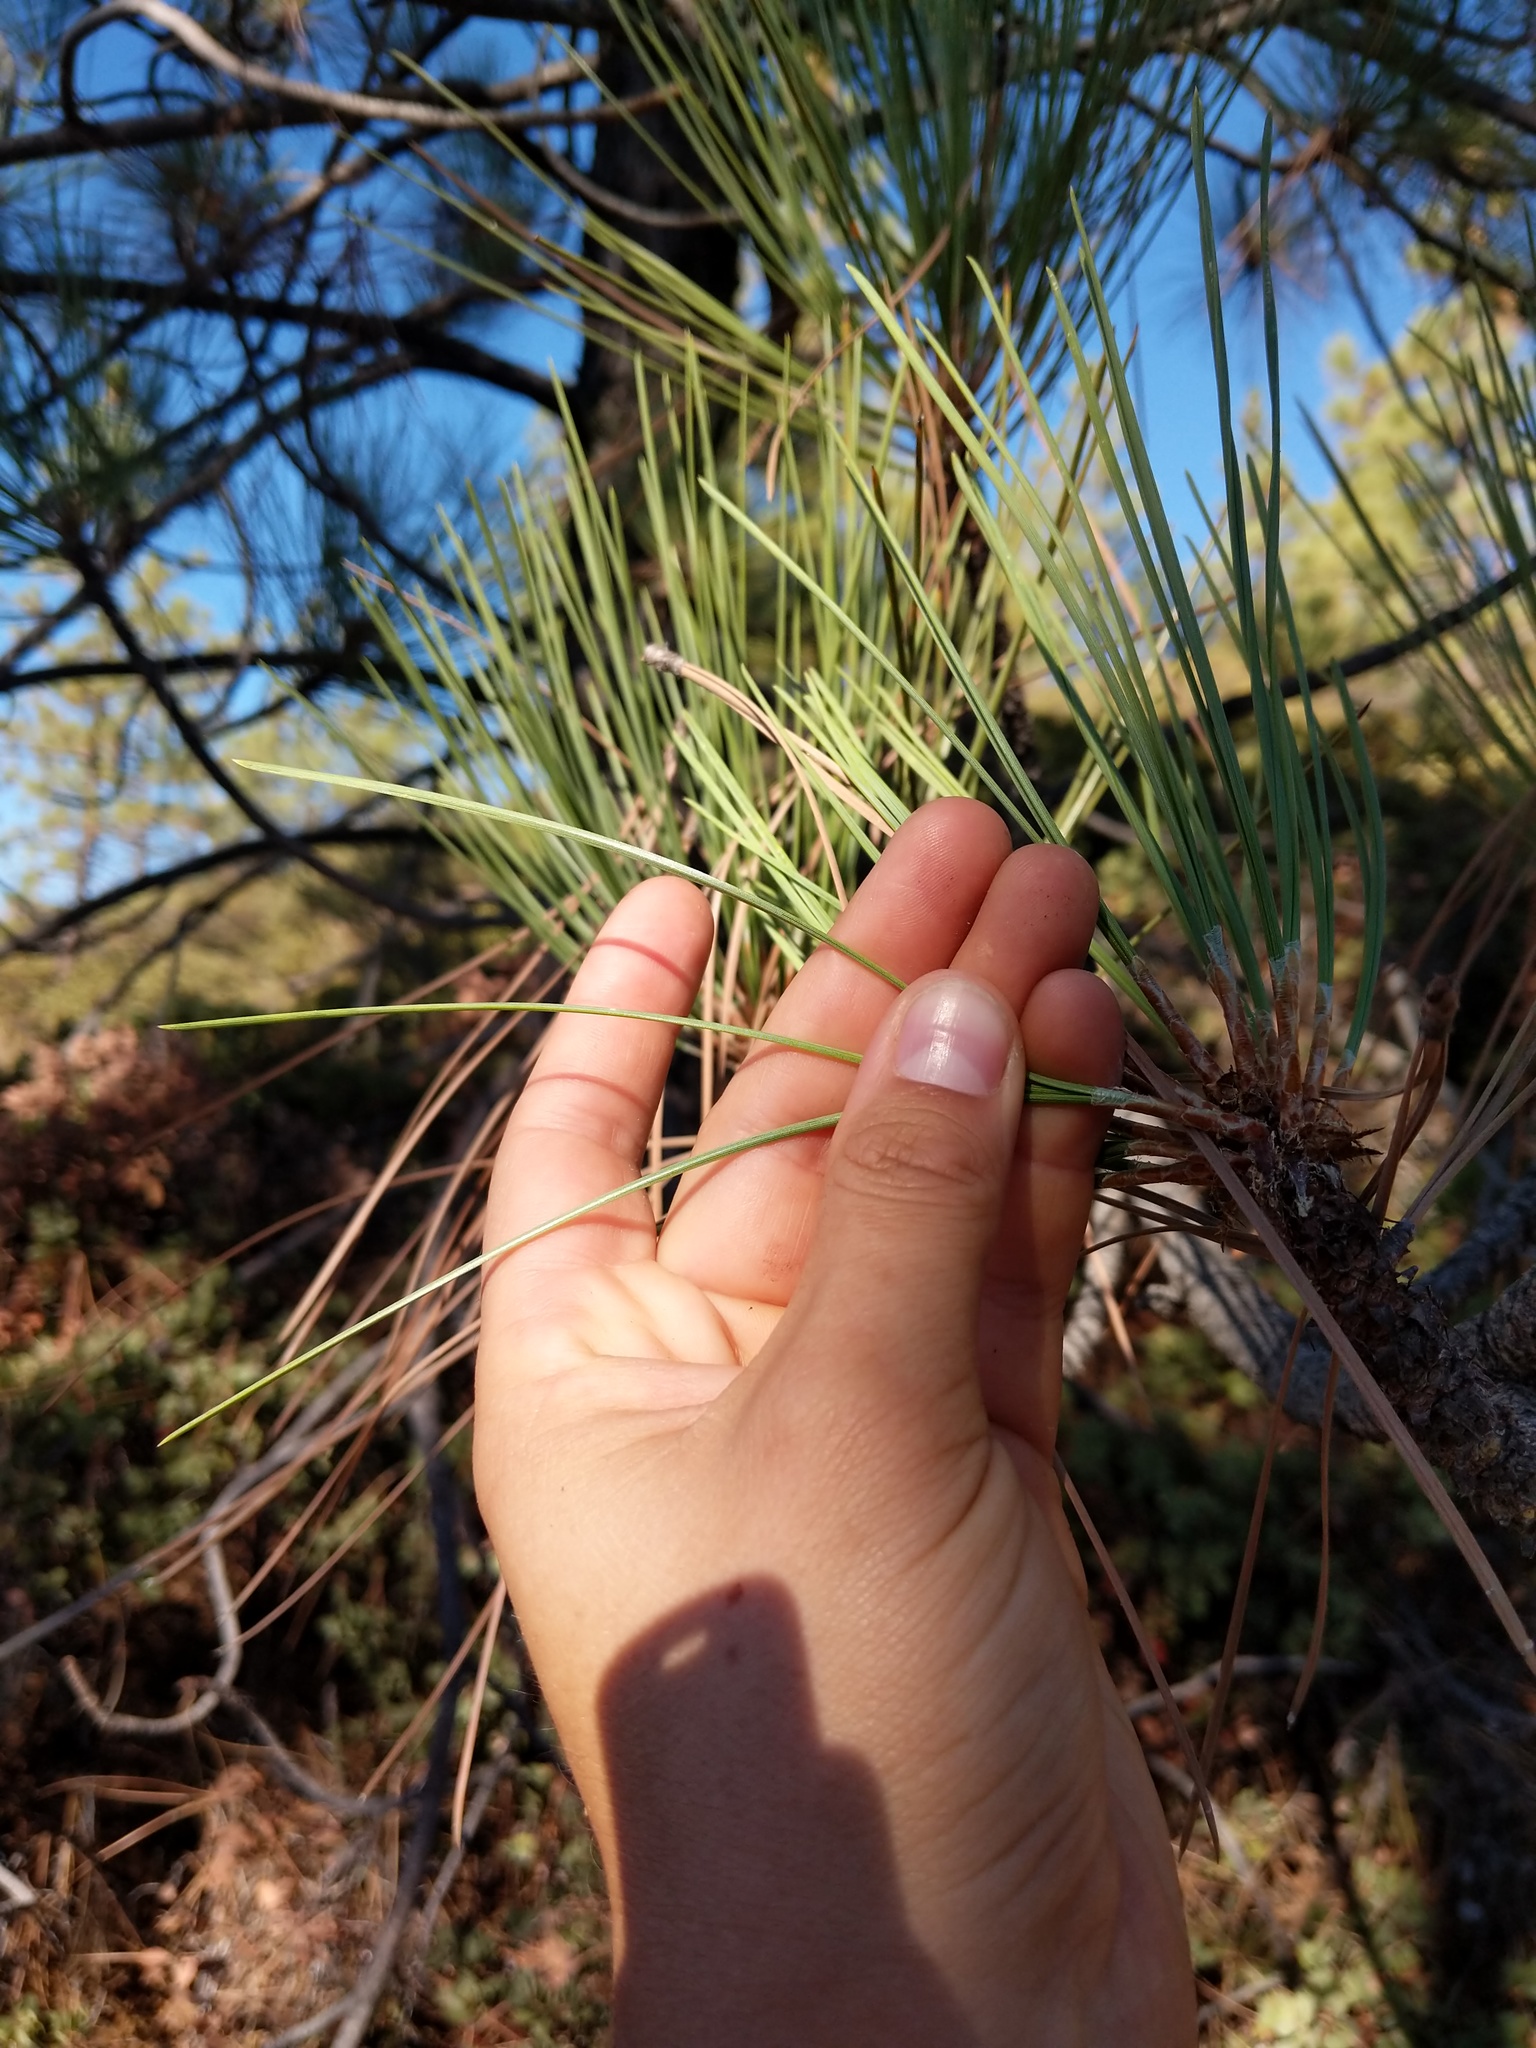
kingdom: Plantae
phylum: Tracheophyta
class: Pinopsida
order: Pinales
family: Pinaceae
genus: Pinus
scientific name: Pinus sabiniana
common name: Bull pine
